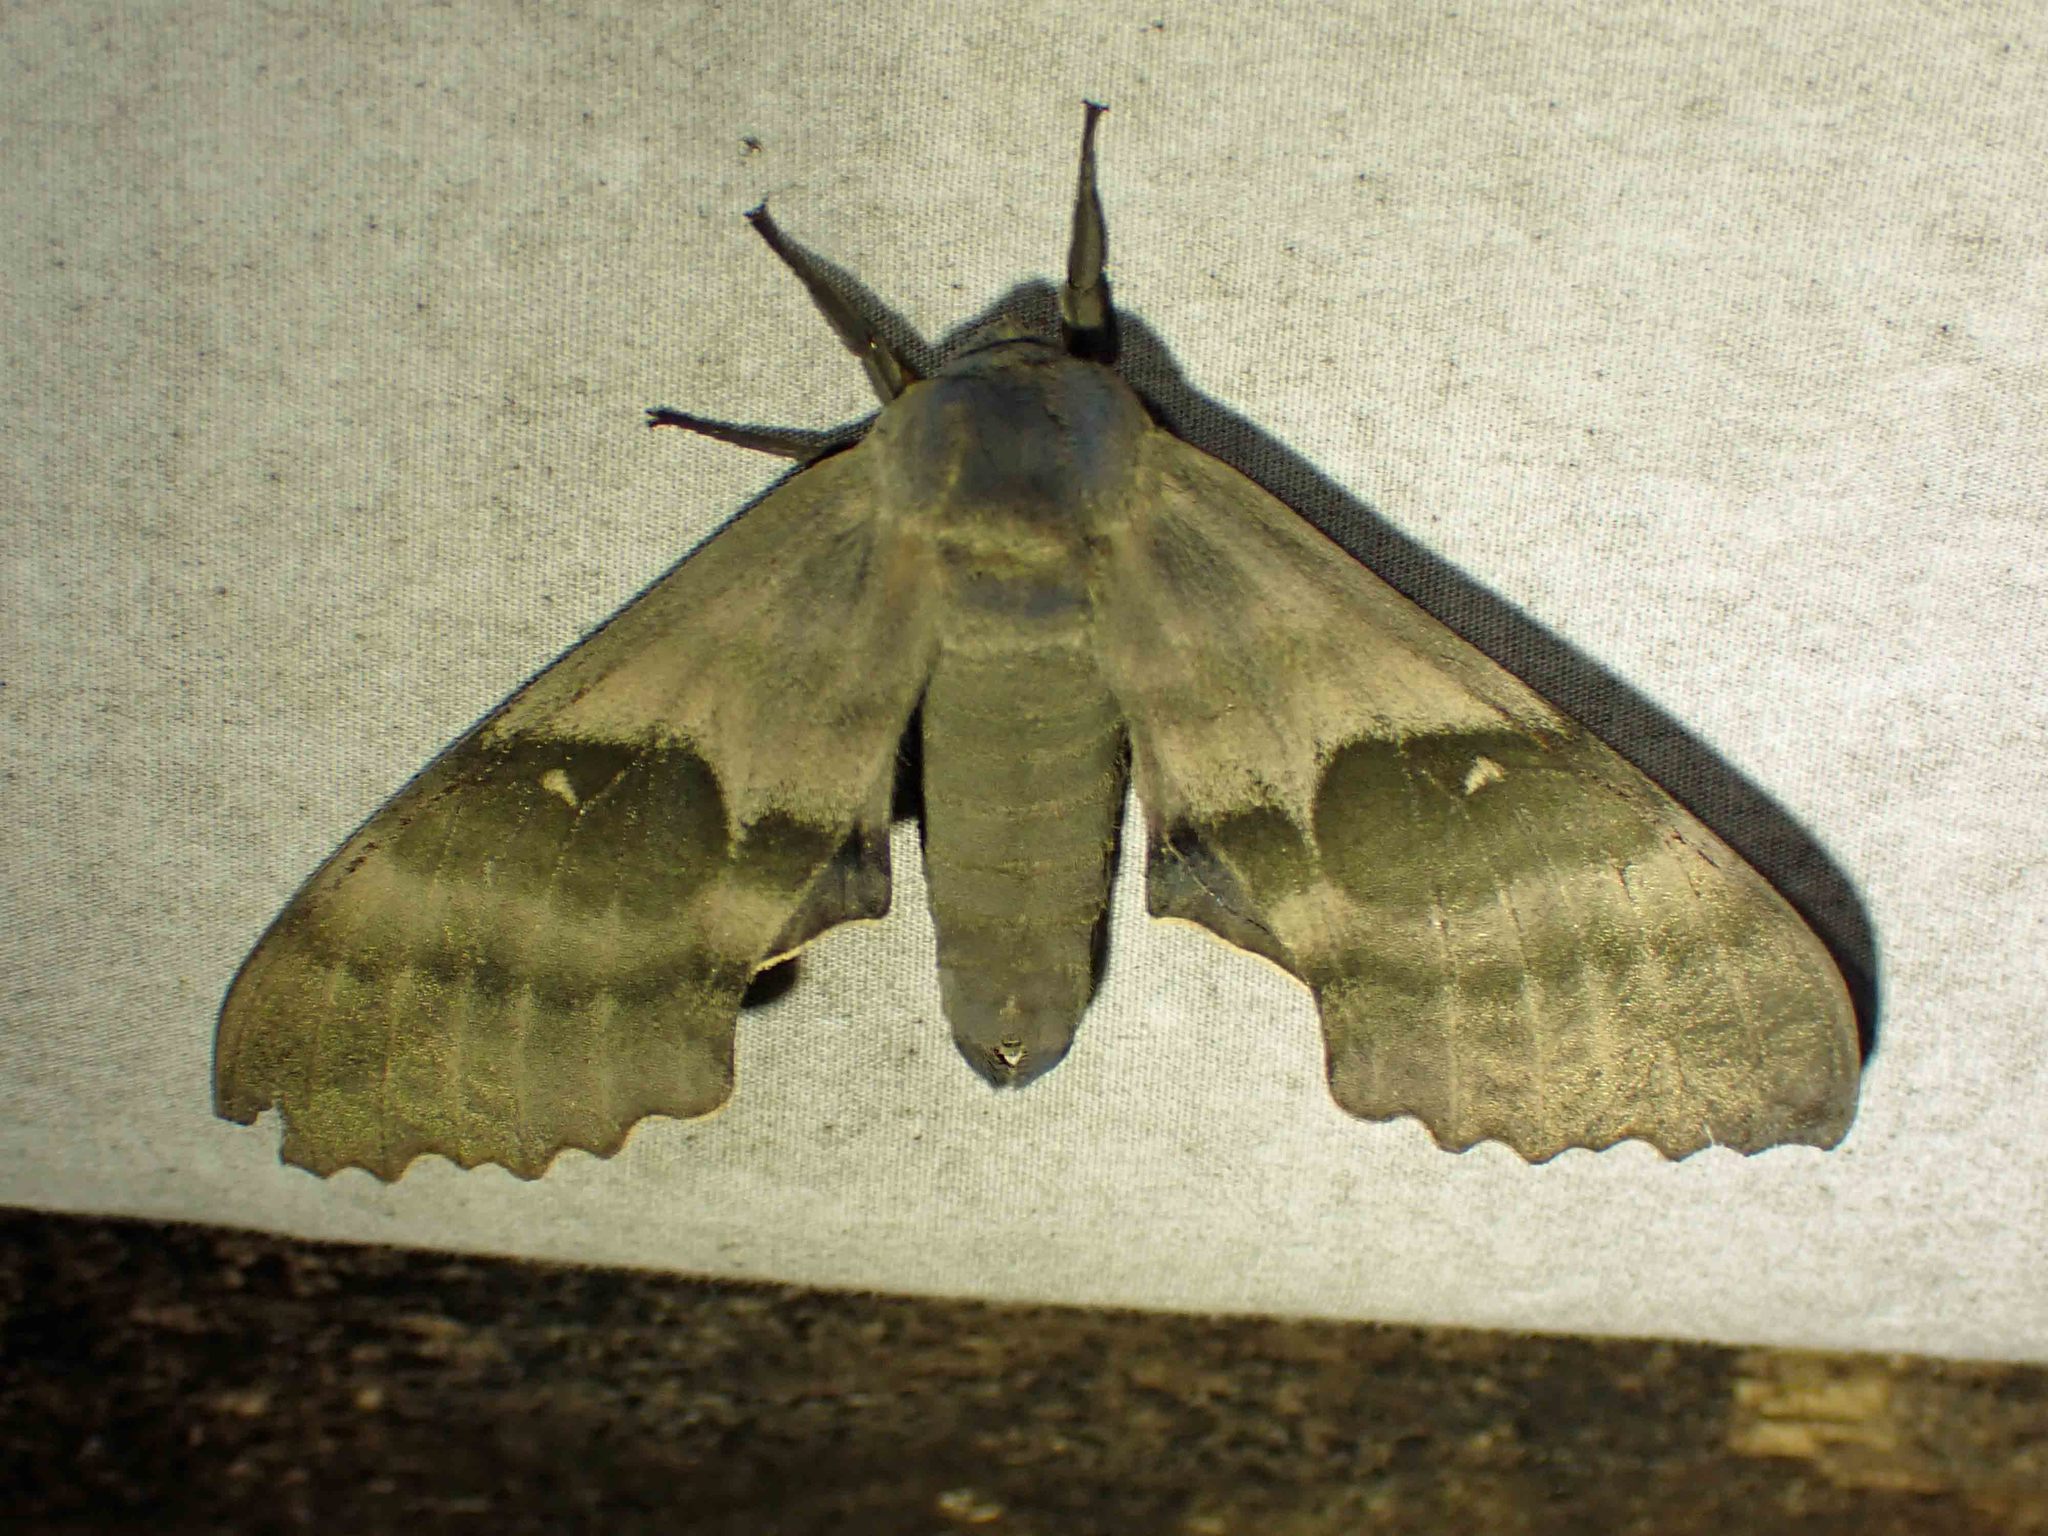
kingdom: Animalia
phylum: Arthropoda
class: Insecta
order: Lepidoptera
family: Sphingidae
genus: Pachysphinx
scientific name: Pachysphinx modesta
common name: Big poplar sphinx
